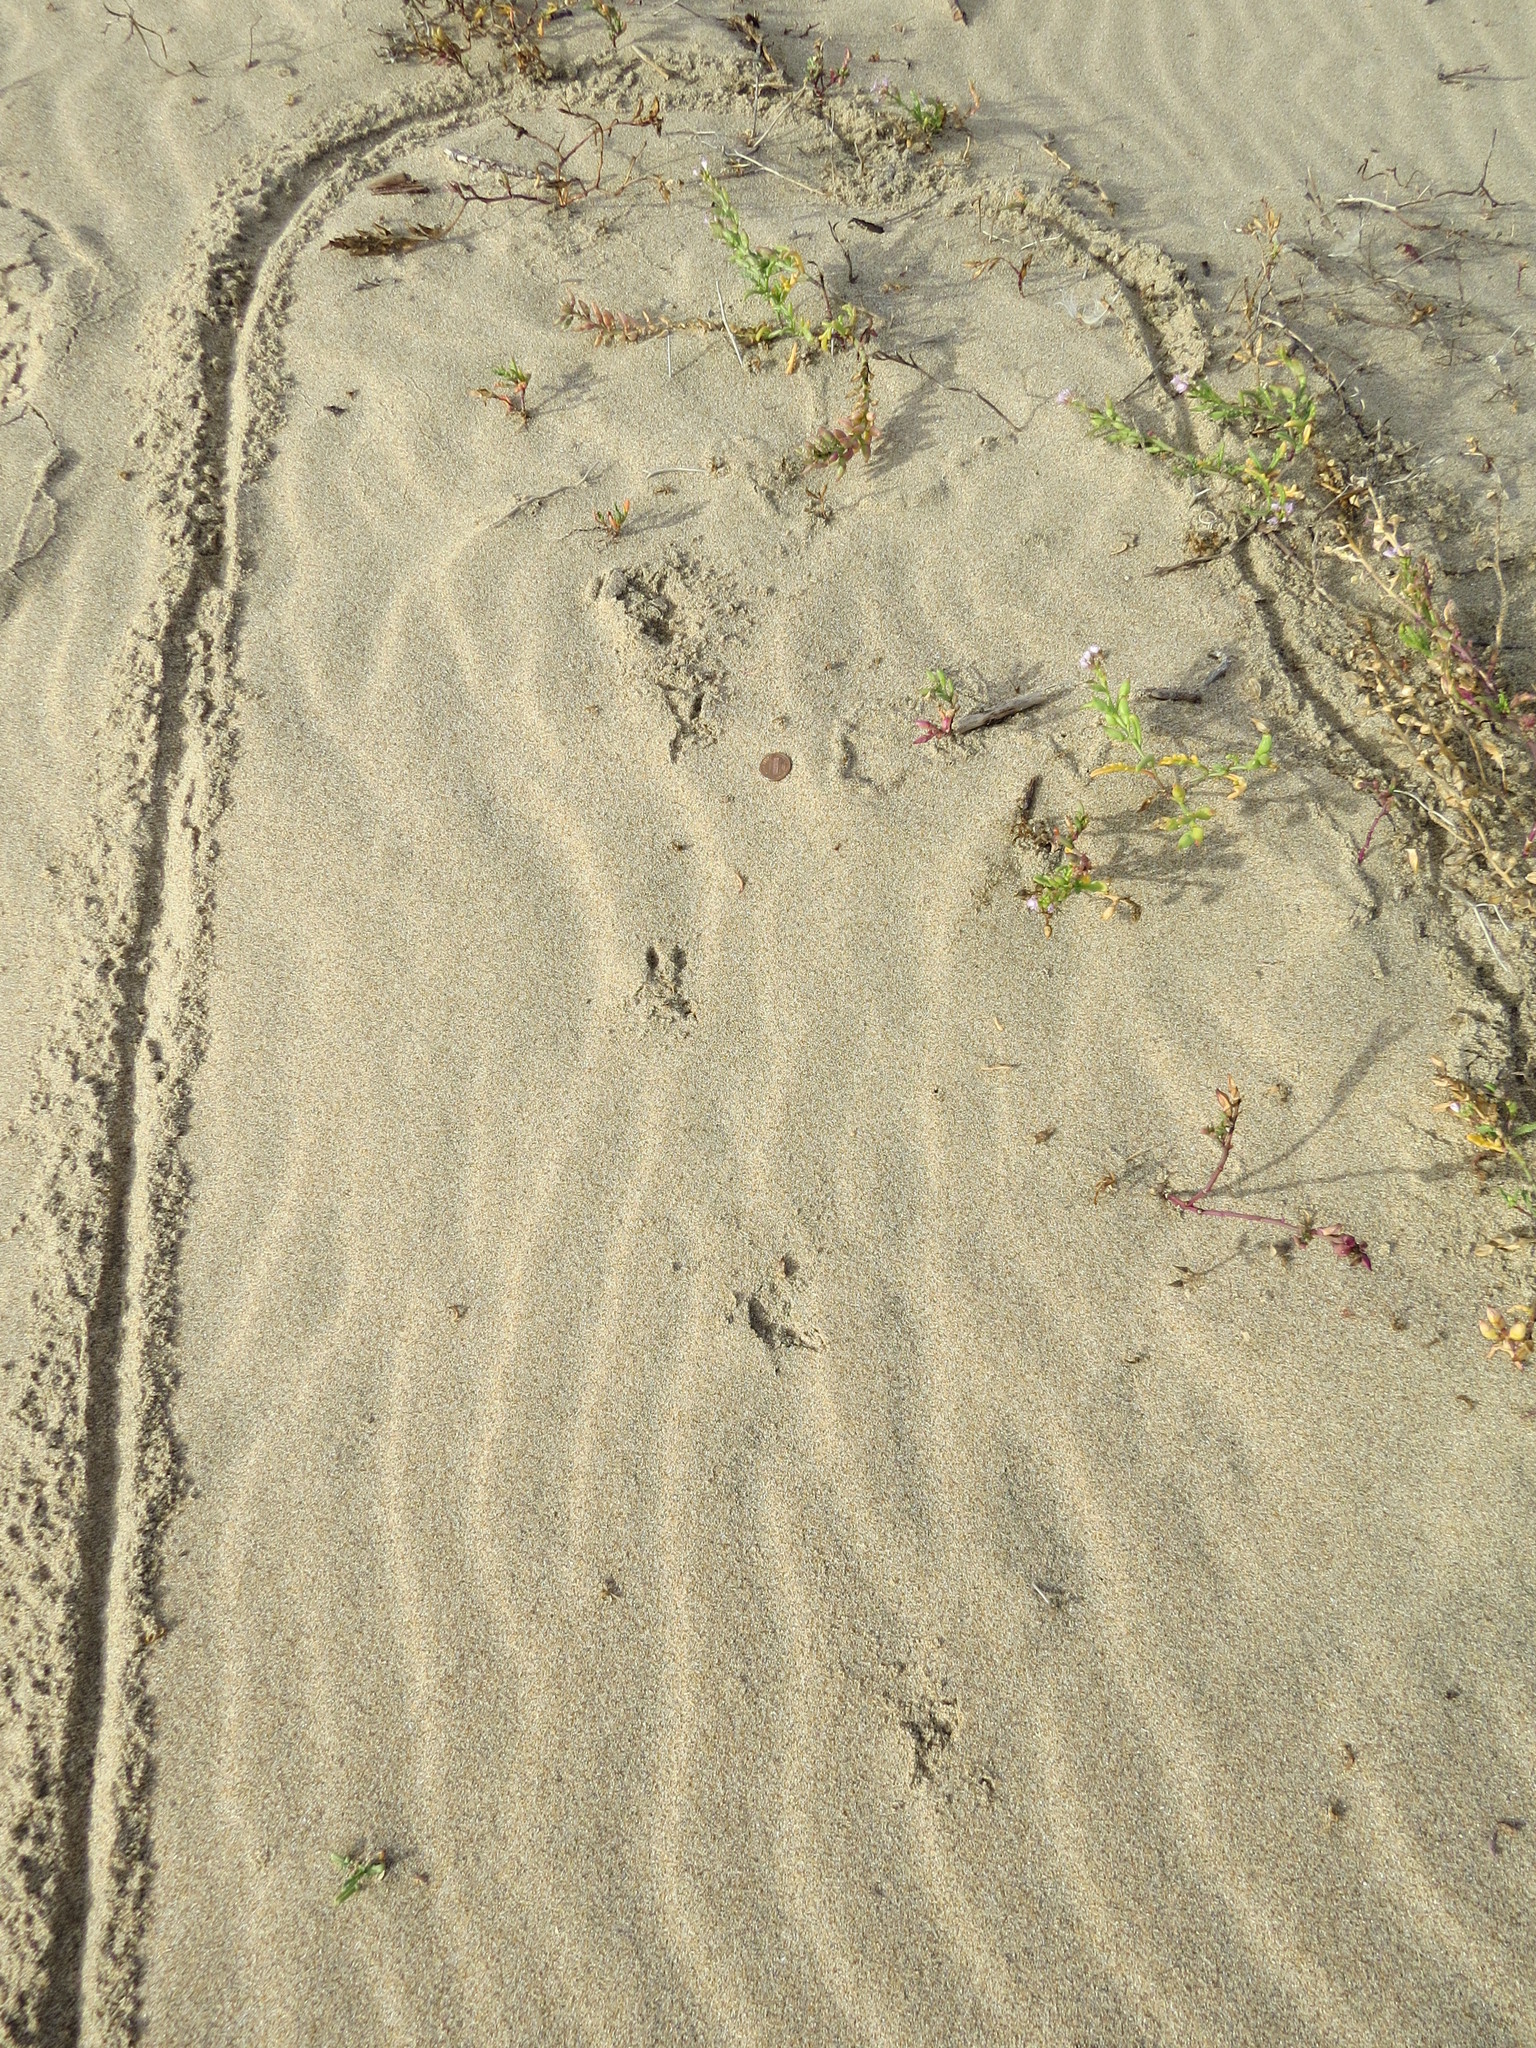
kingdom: Animalia
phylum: Chordata
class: Aves
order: Strigiformes
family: Strigidae
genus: Athene
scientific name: Athene cunicularia
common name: Burrowing owl
